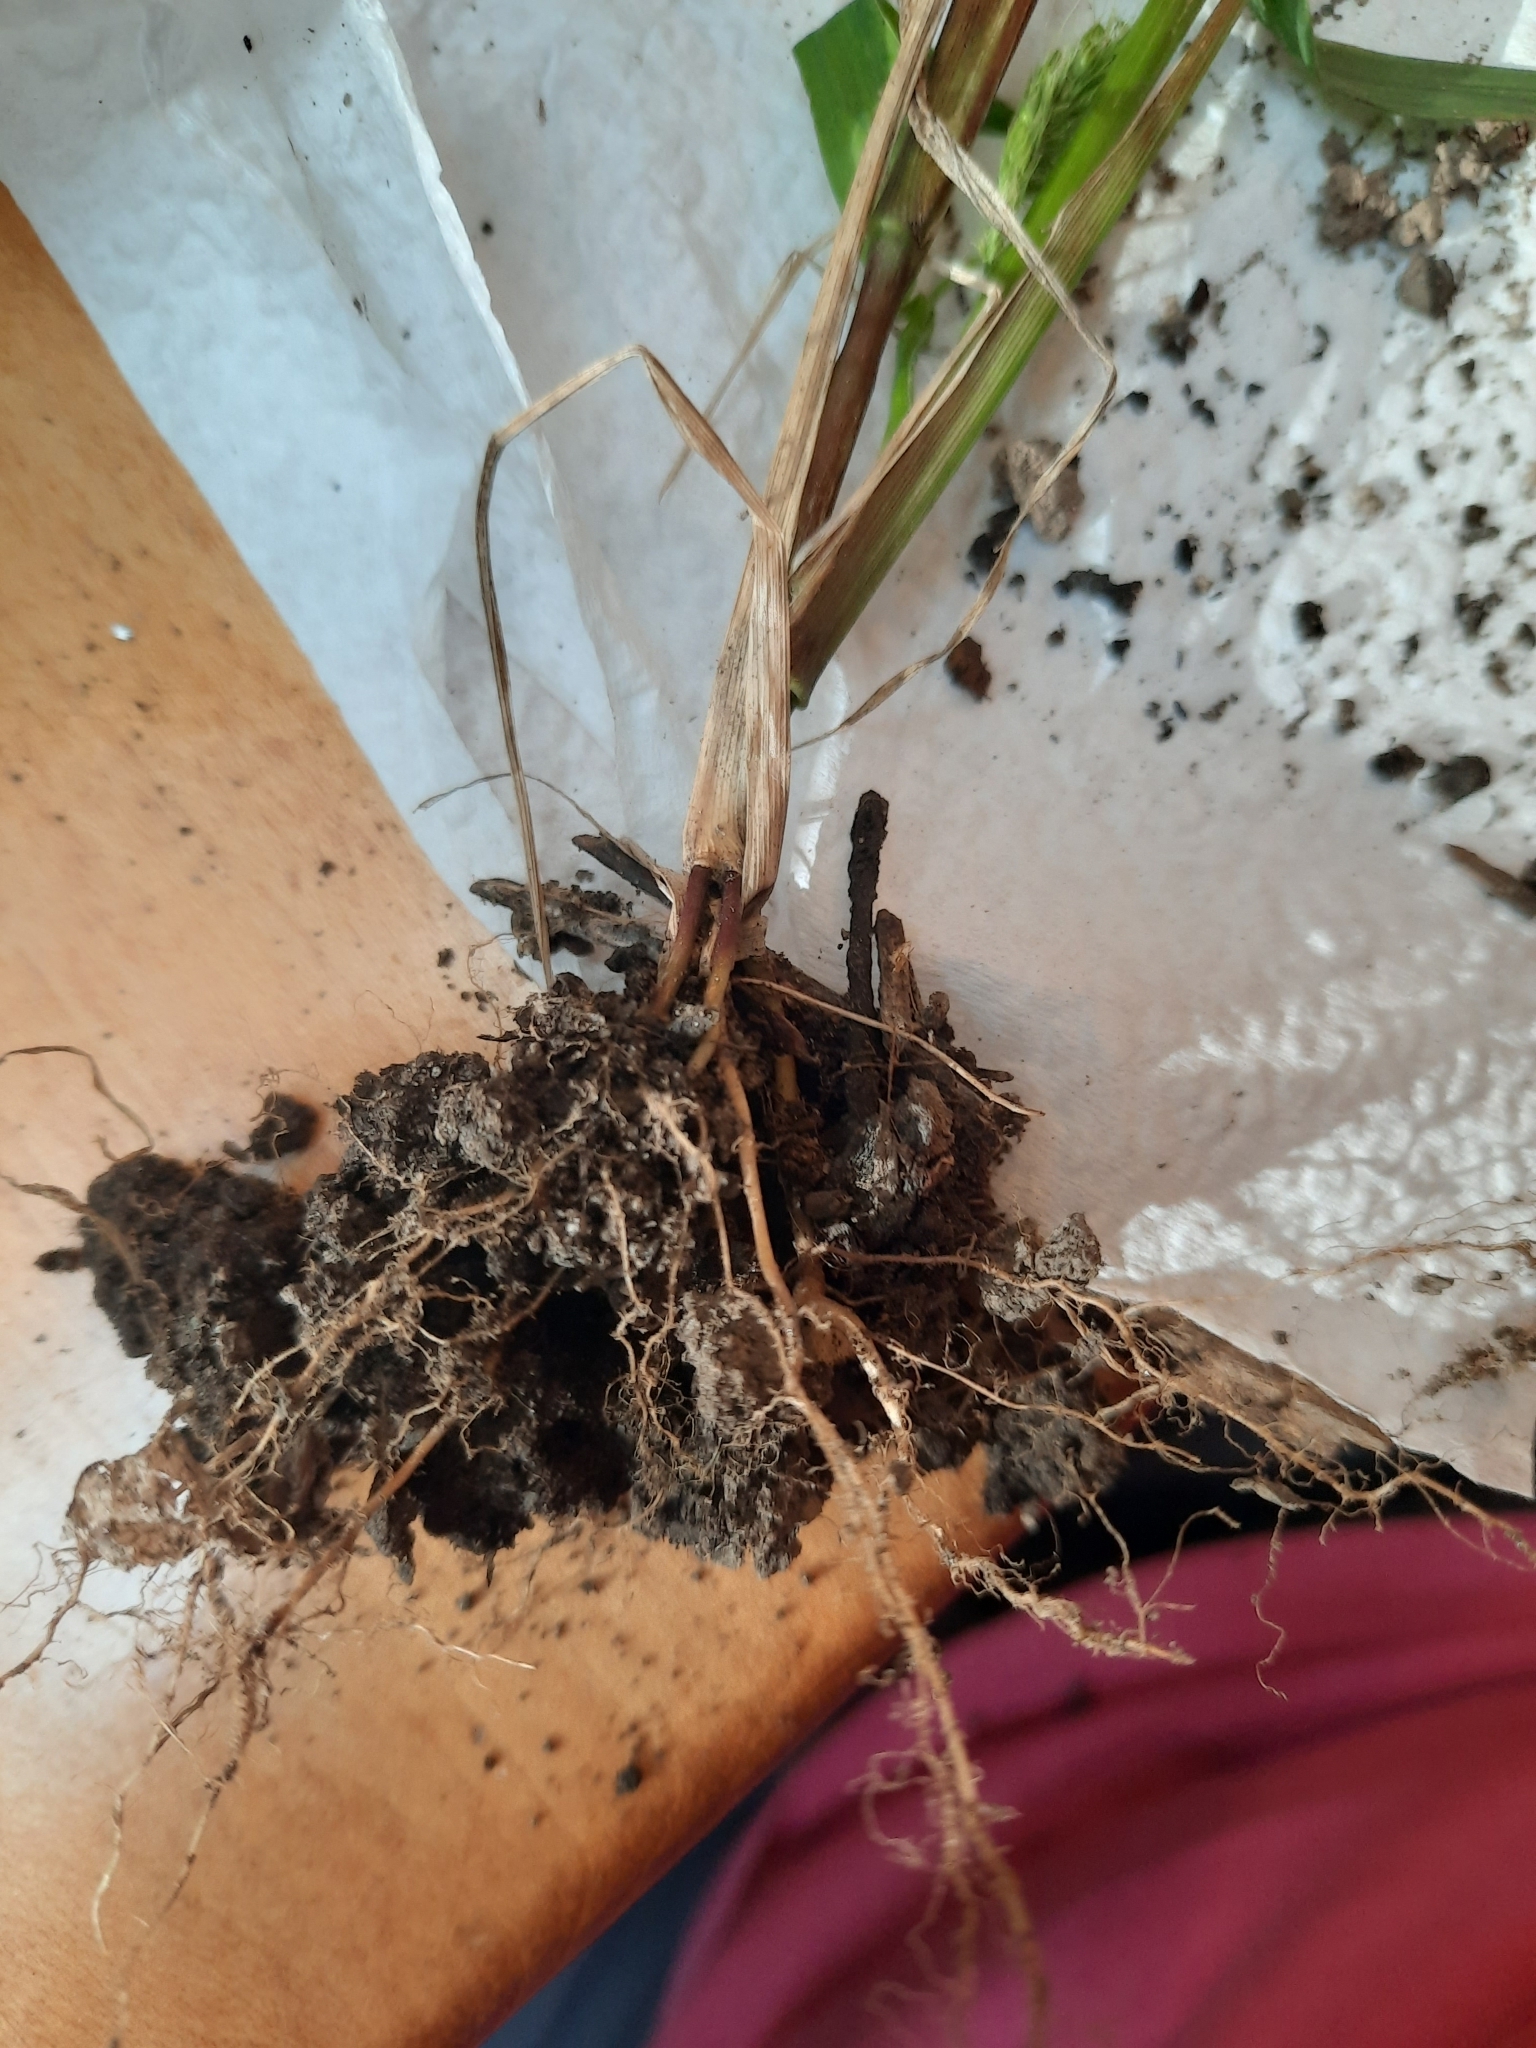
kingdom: Plantae
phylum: Tracheophyta
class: Liliopsida
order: Poales
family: Poaceae
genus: Setaria
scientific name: Setaria pumila
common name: Yellow bristle-grass
